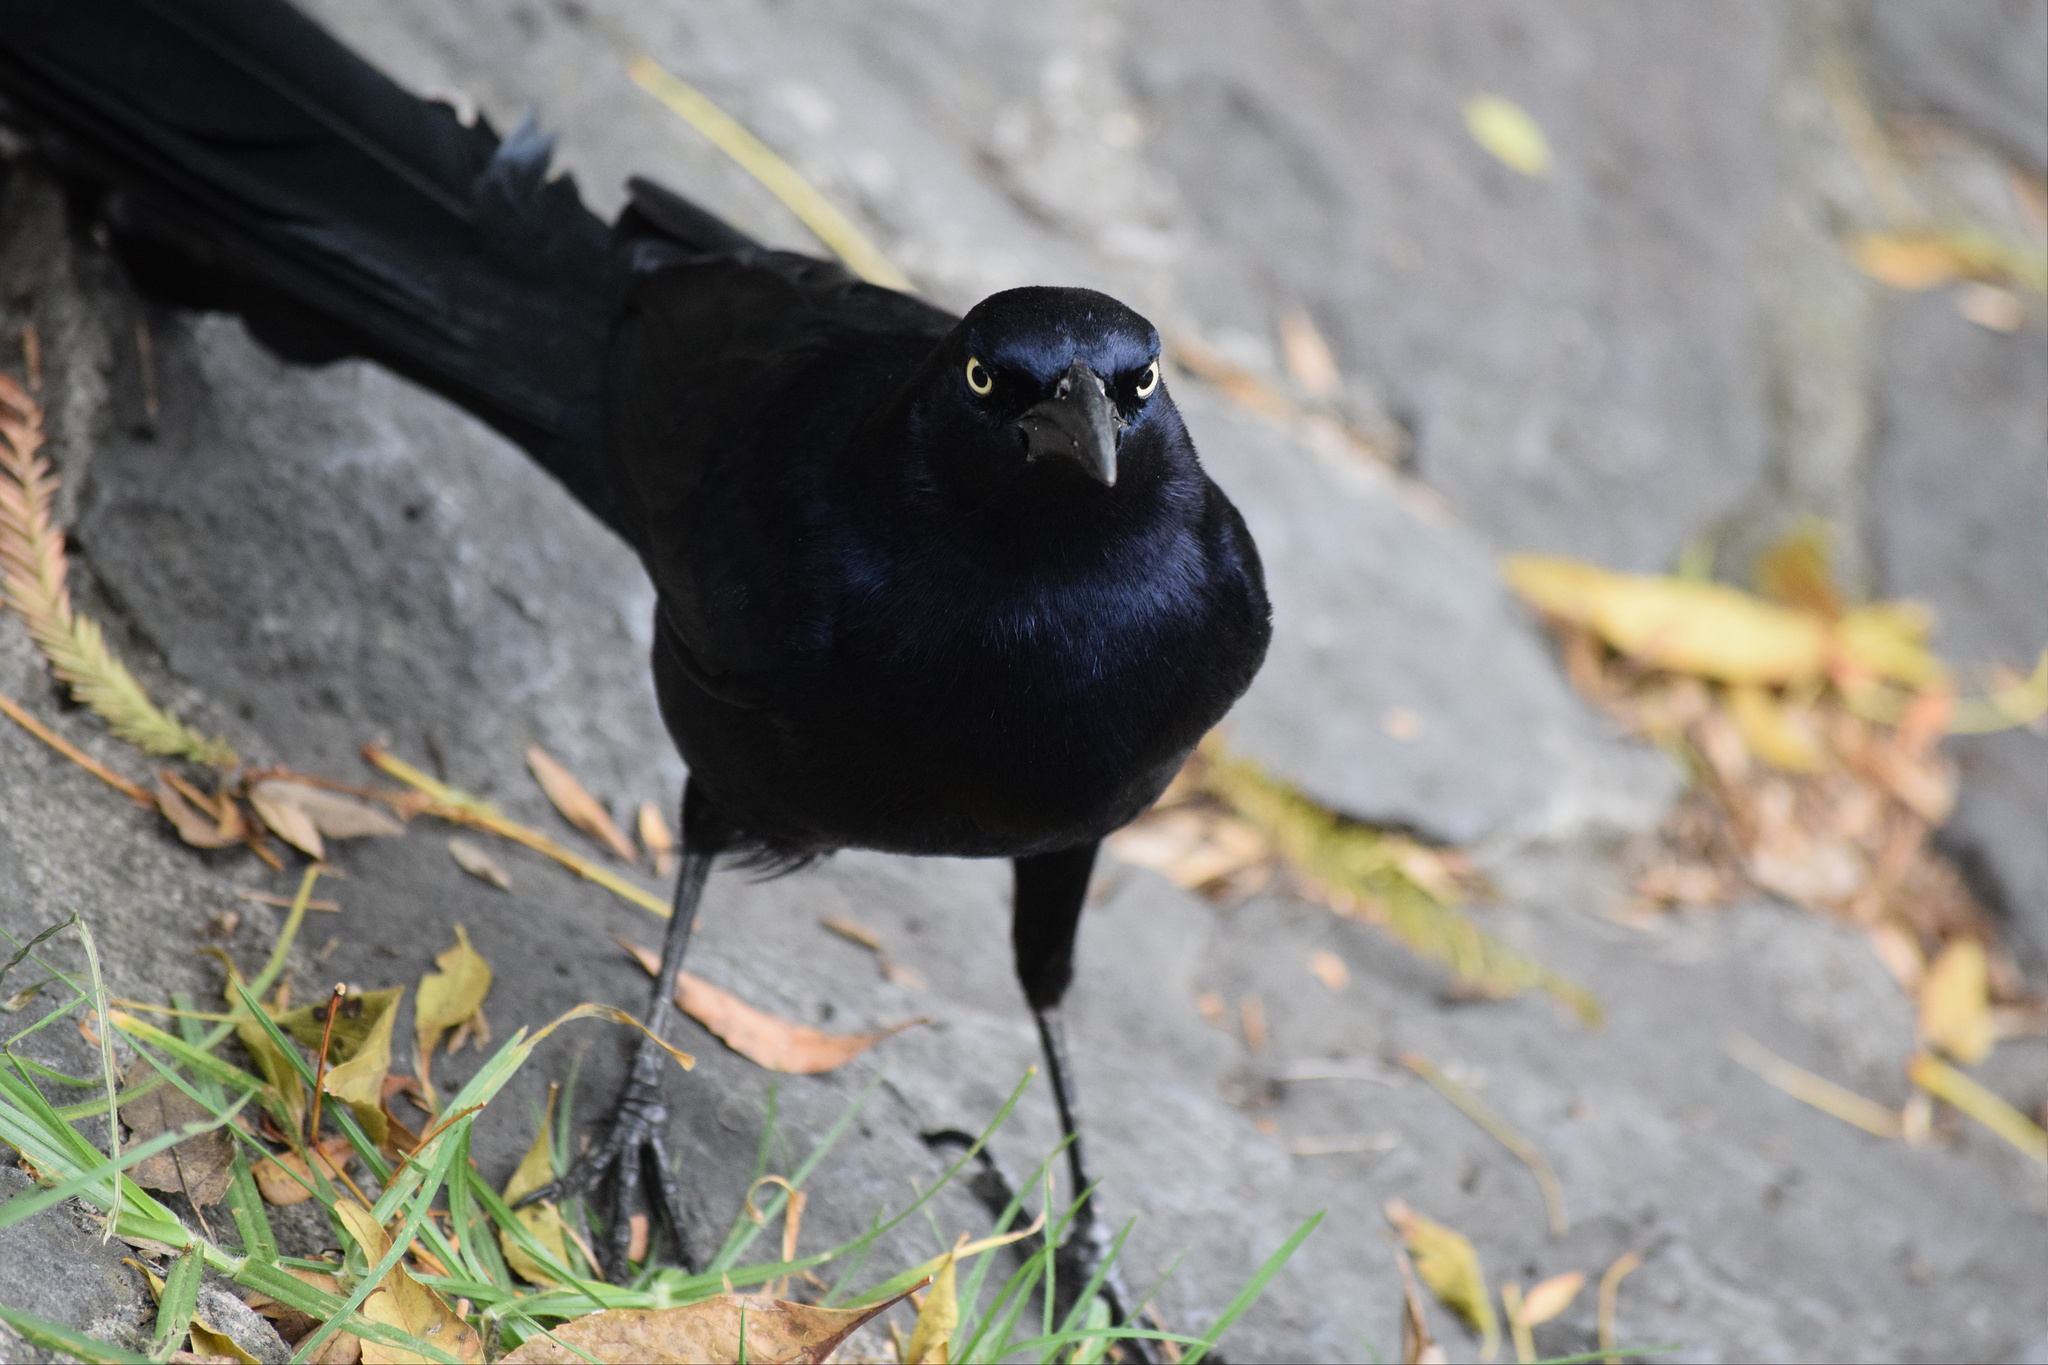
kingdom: Animalia
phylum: Chordata
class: Aves
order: Passeriformes
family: Icteridae
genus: Quiscalus
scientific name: Quiscalus mexicanus
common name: Great-tailed grackle
